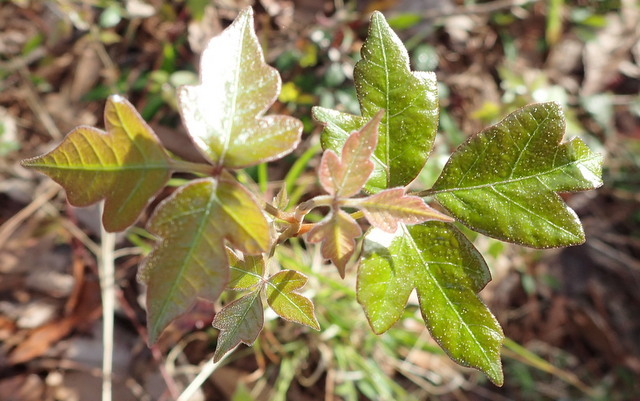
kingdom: Plantae
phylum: Tracheophyta
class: Magnoliopsida
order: Sapindales
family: Anacardiaceae
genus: Toxicodendron
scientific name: Toxicodendron radicans
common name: Poison ivy
